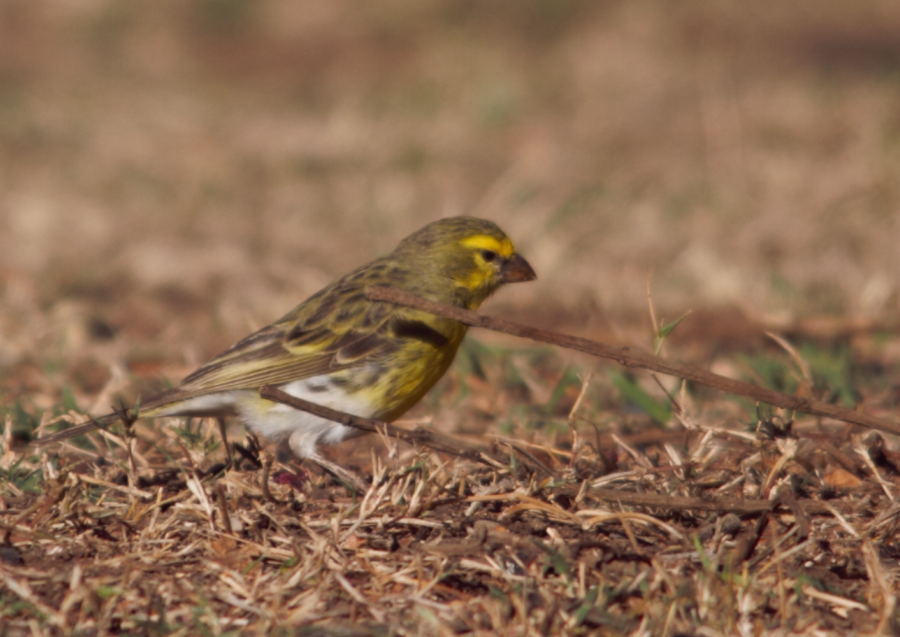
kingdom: Animalia
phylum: Chordata
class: Aves
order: Passeriformes
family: Fringillidae
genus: Crithagra
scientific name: Crithagra dorsostriata
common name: White-bellied canary
